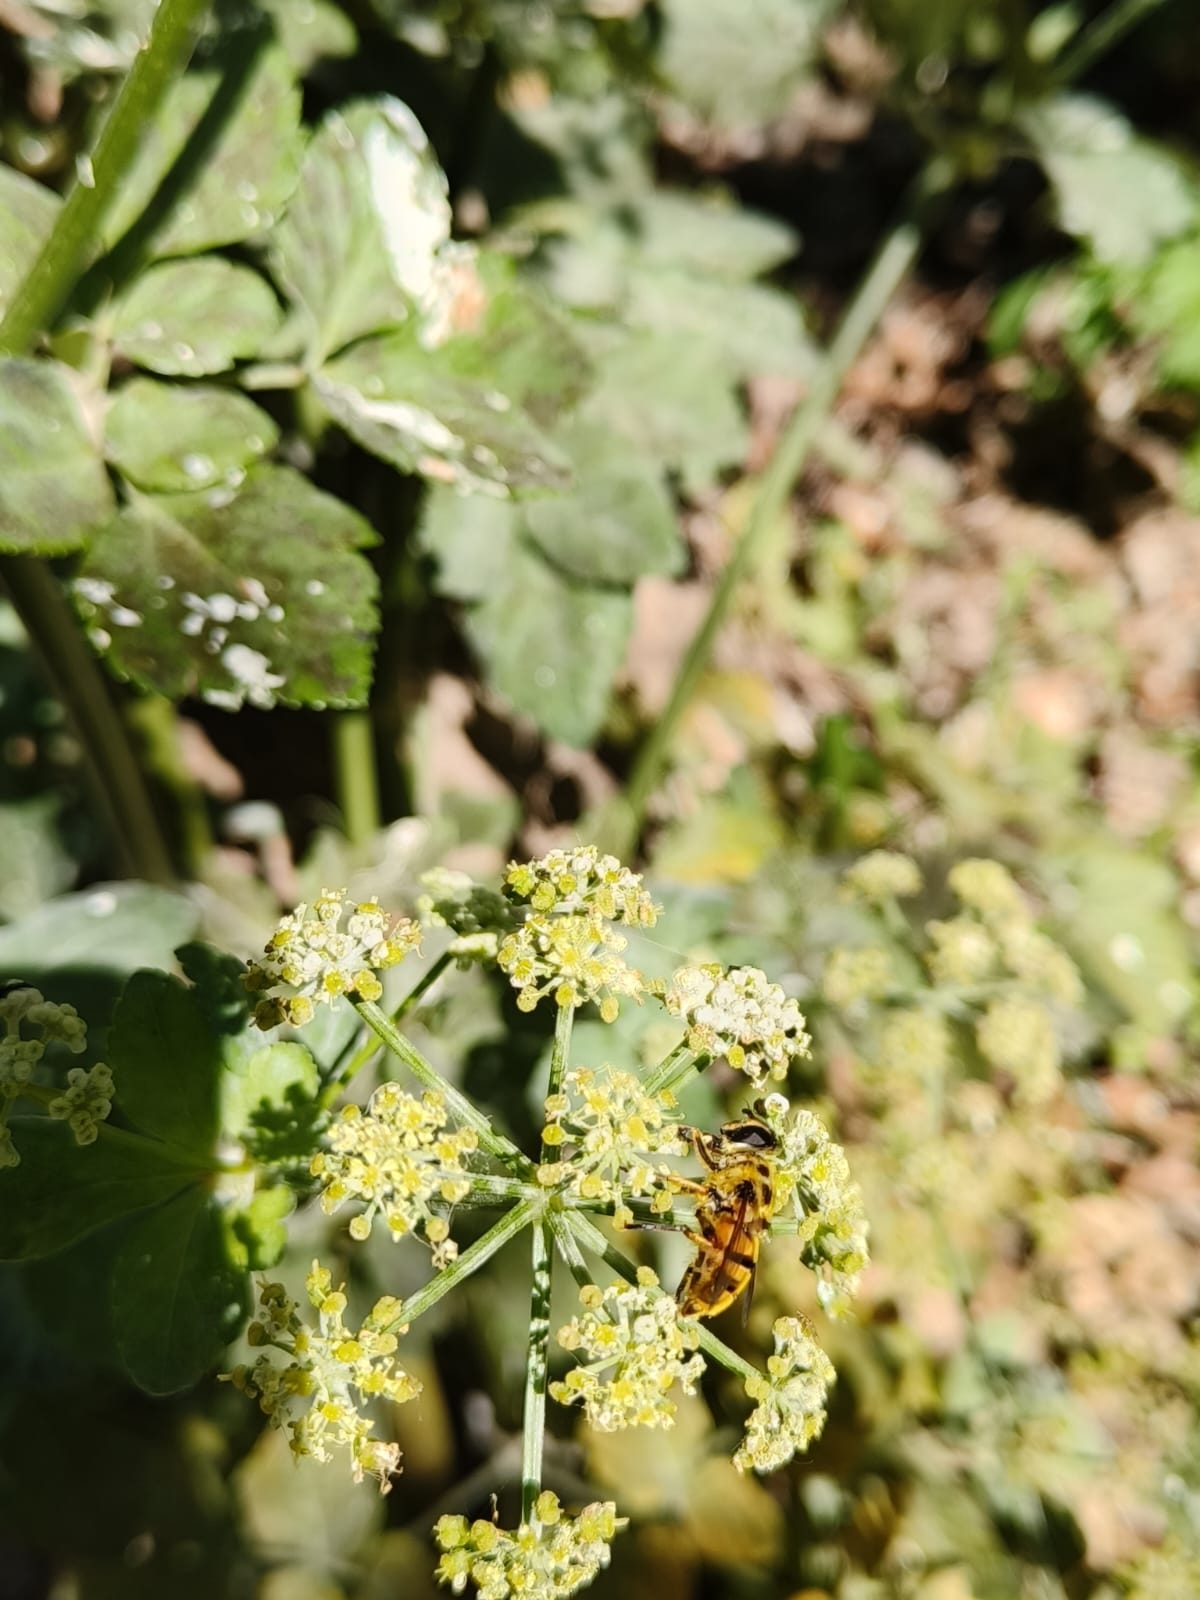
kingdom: Animalia
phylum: Arthropoda
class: Insecta
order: Diptera
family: Syrphidae
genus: Myathropa
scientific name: Myathropa florea
